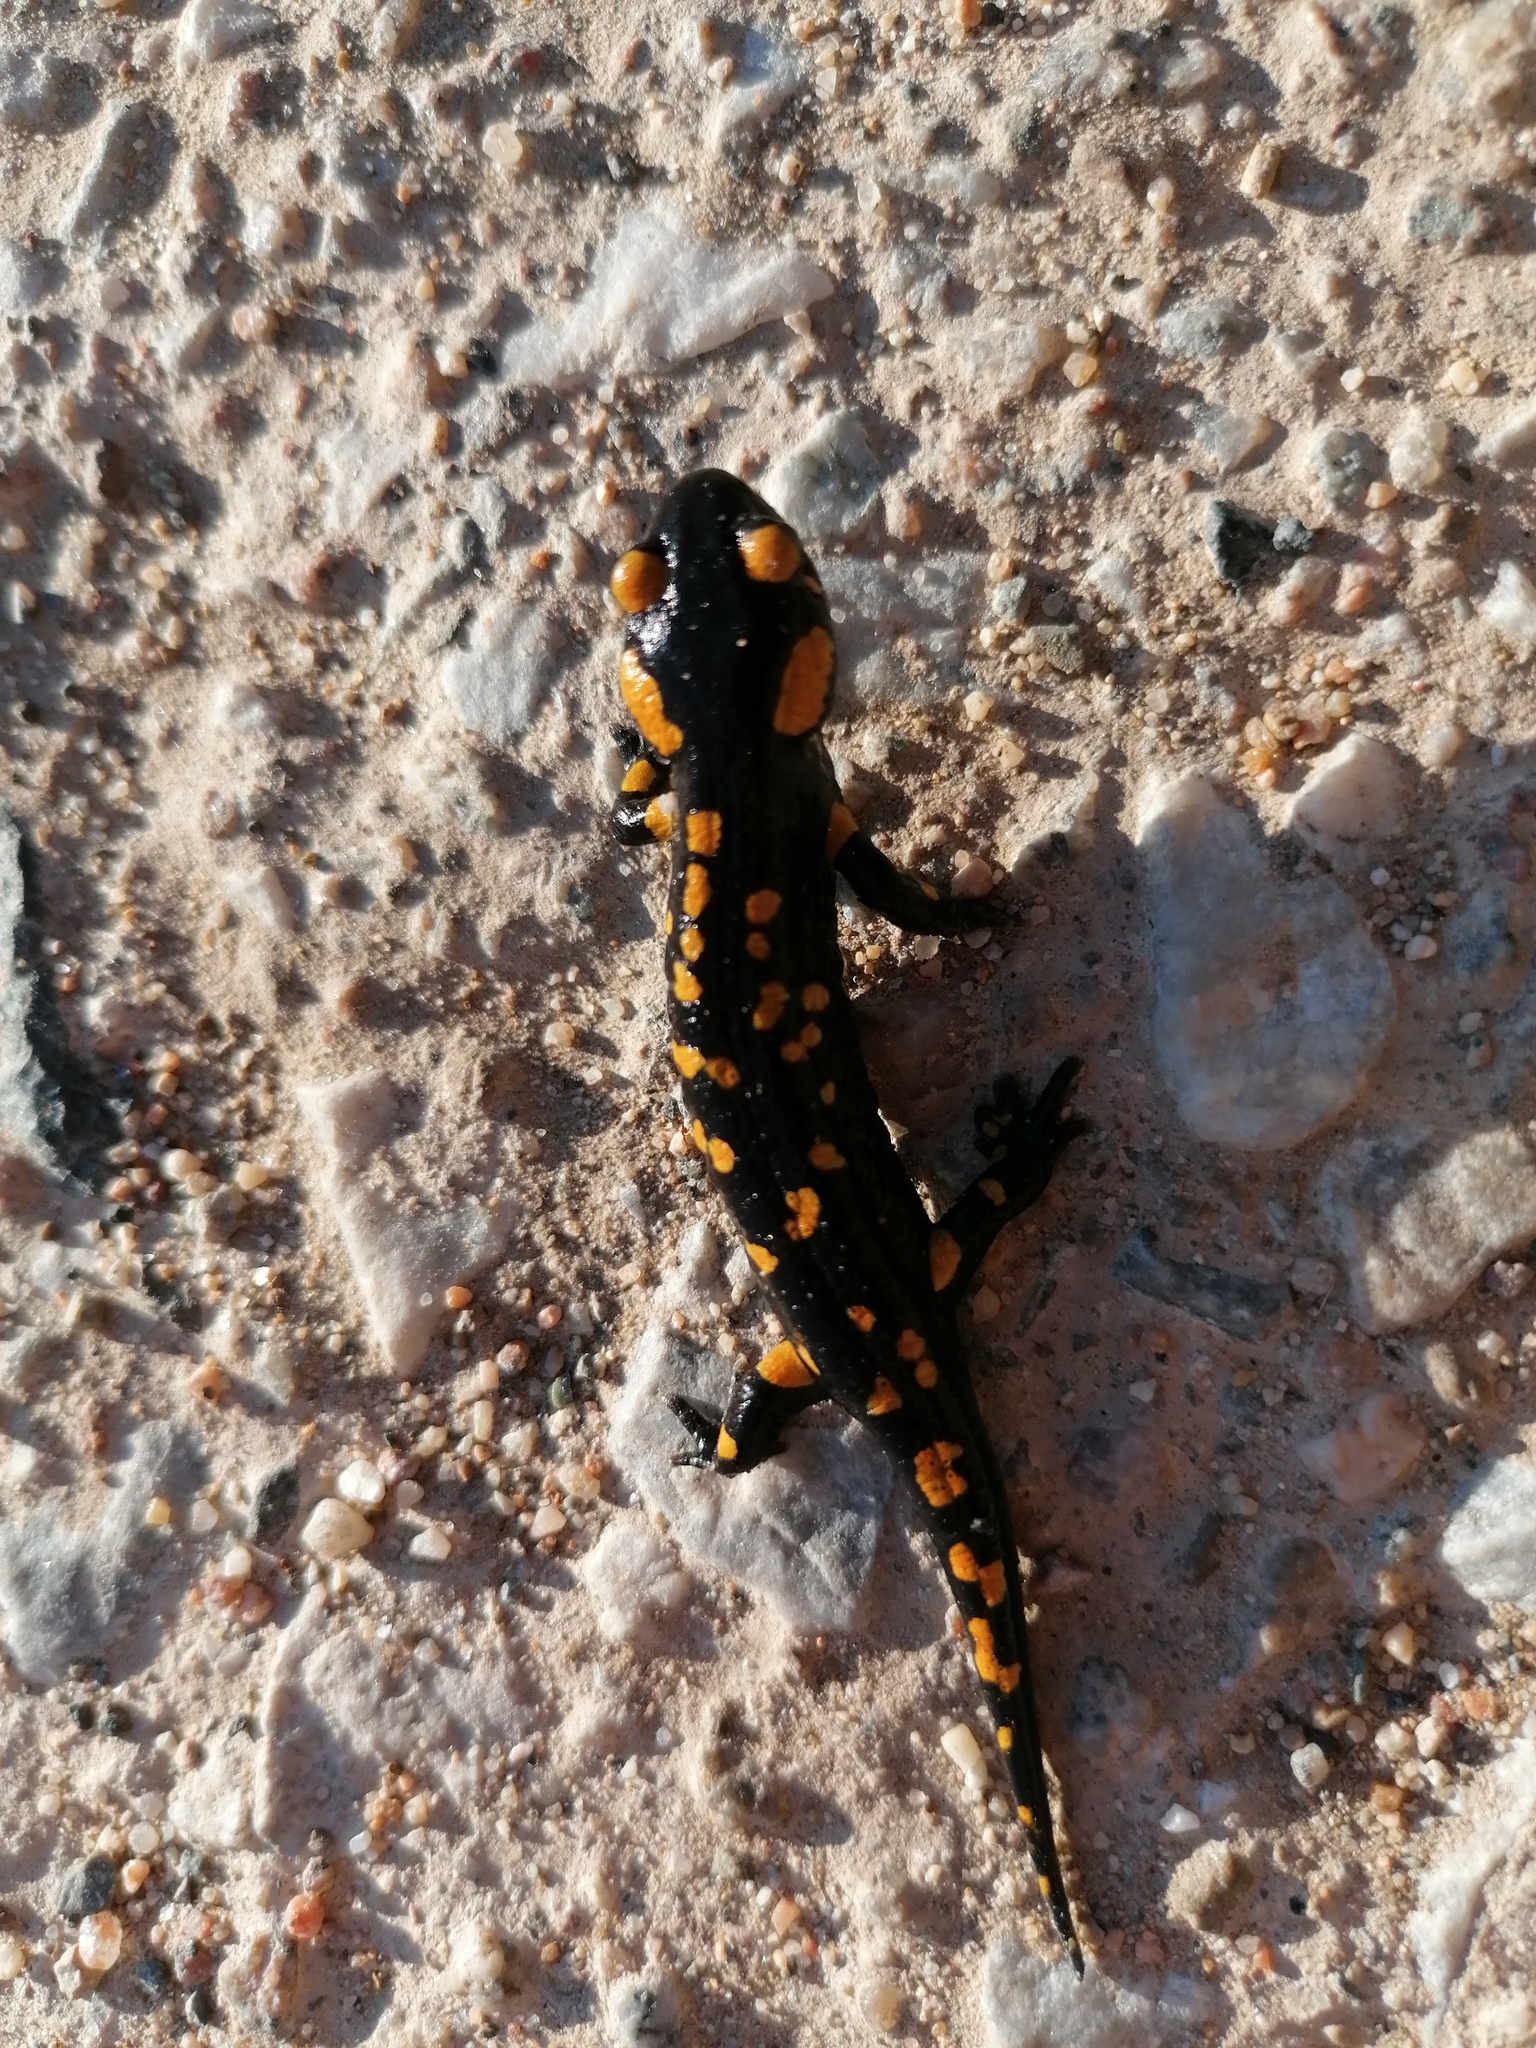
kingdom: Animalia
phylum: Chordata
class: Amphibia
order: Caudata
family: Salamandridae
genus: Salamandra
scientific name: Salamandra salamandra
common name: Fire salamander
